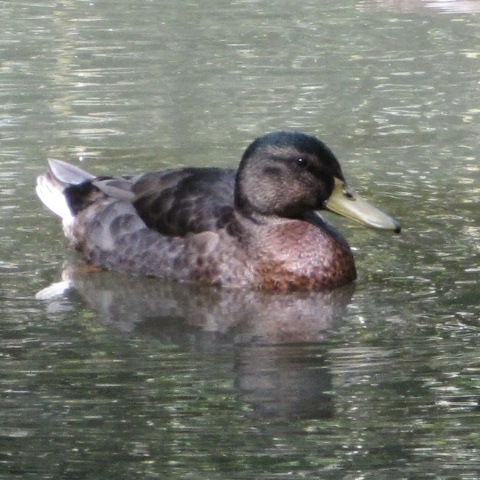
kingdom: Animalia
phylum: Chordata
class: Aves
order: Anseriformes
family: Anatidae
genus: Anas
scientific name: Anas platyrhynchos
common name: Mallard
